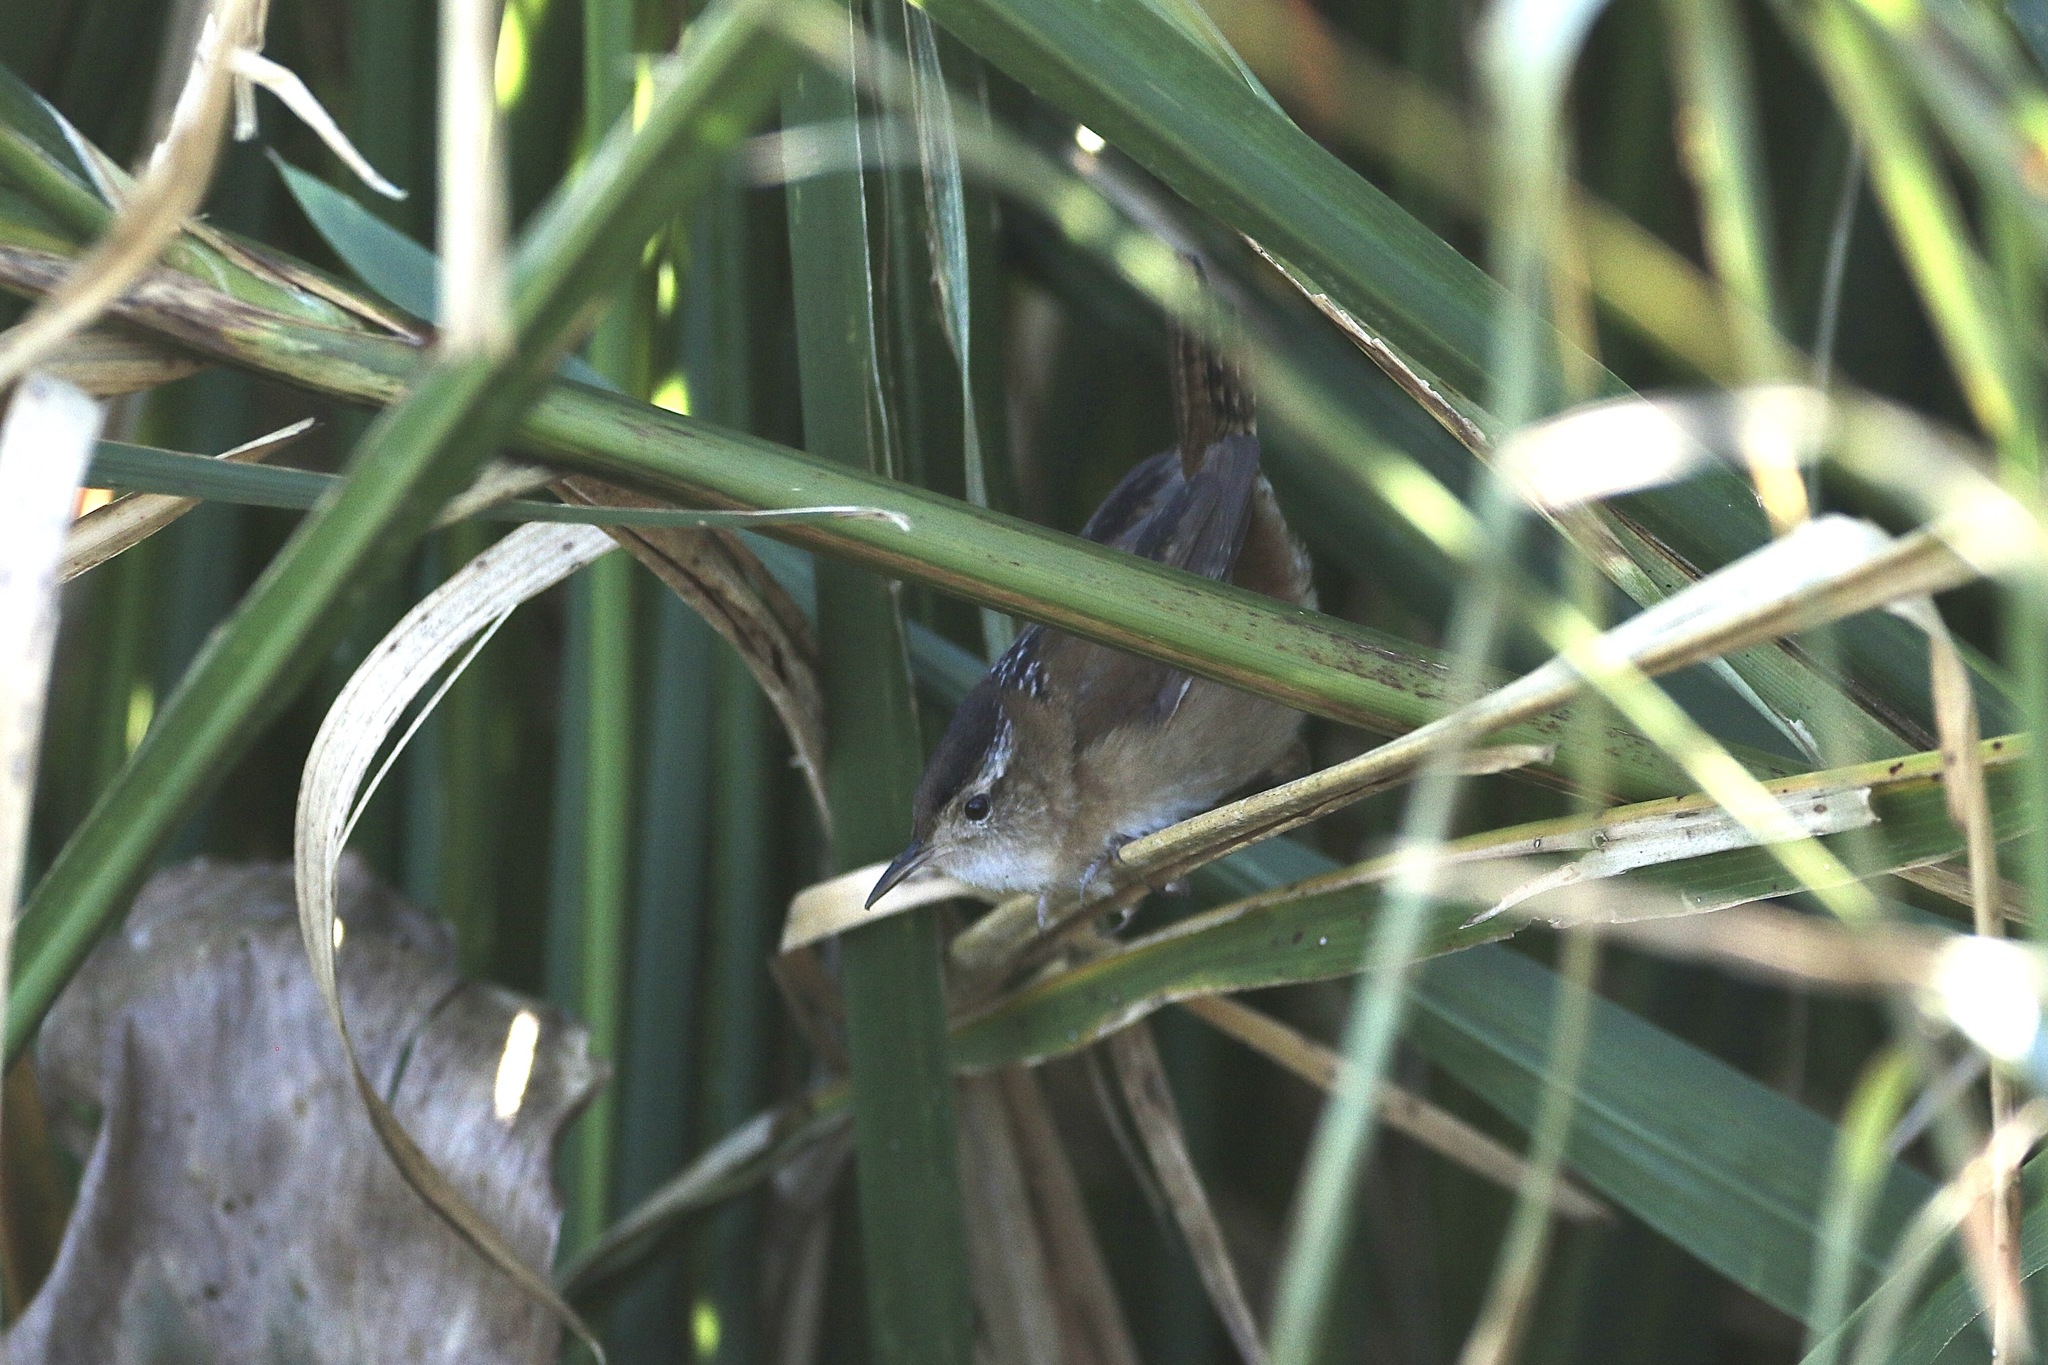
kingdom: Animalia
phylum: Chordata
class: Aves
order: Passeriformes
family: Troglodytidae
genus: Cistothorus
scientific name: Cistothorus palustris
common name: Marsh wren
